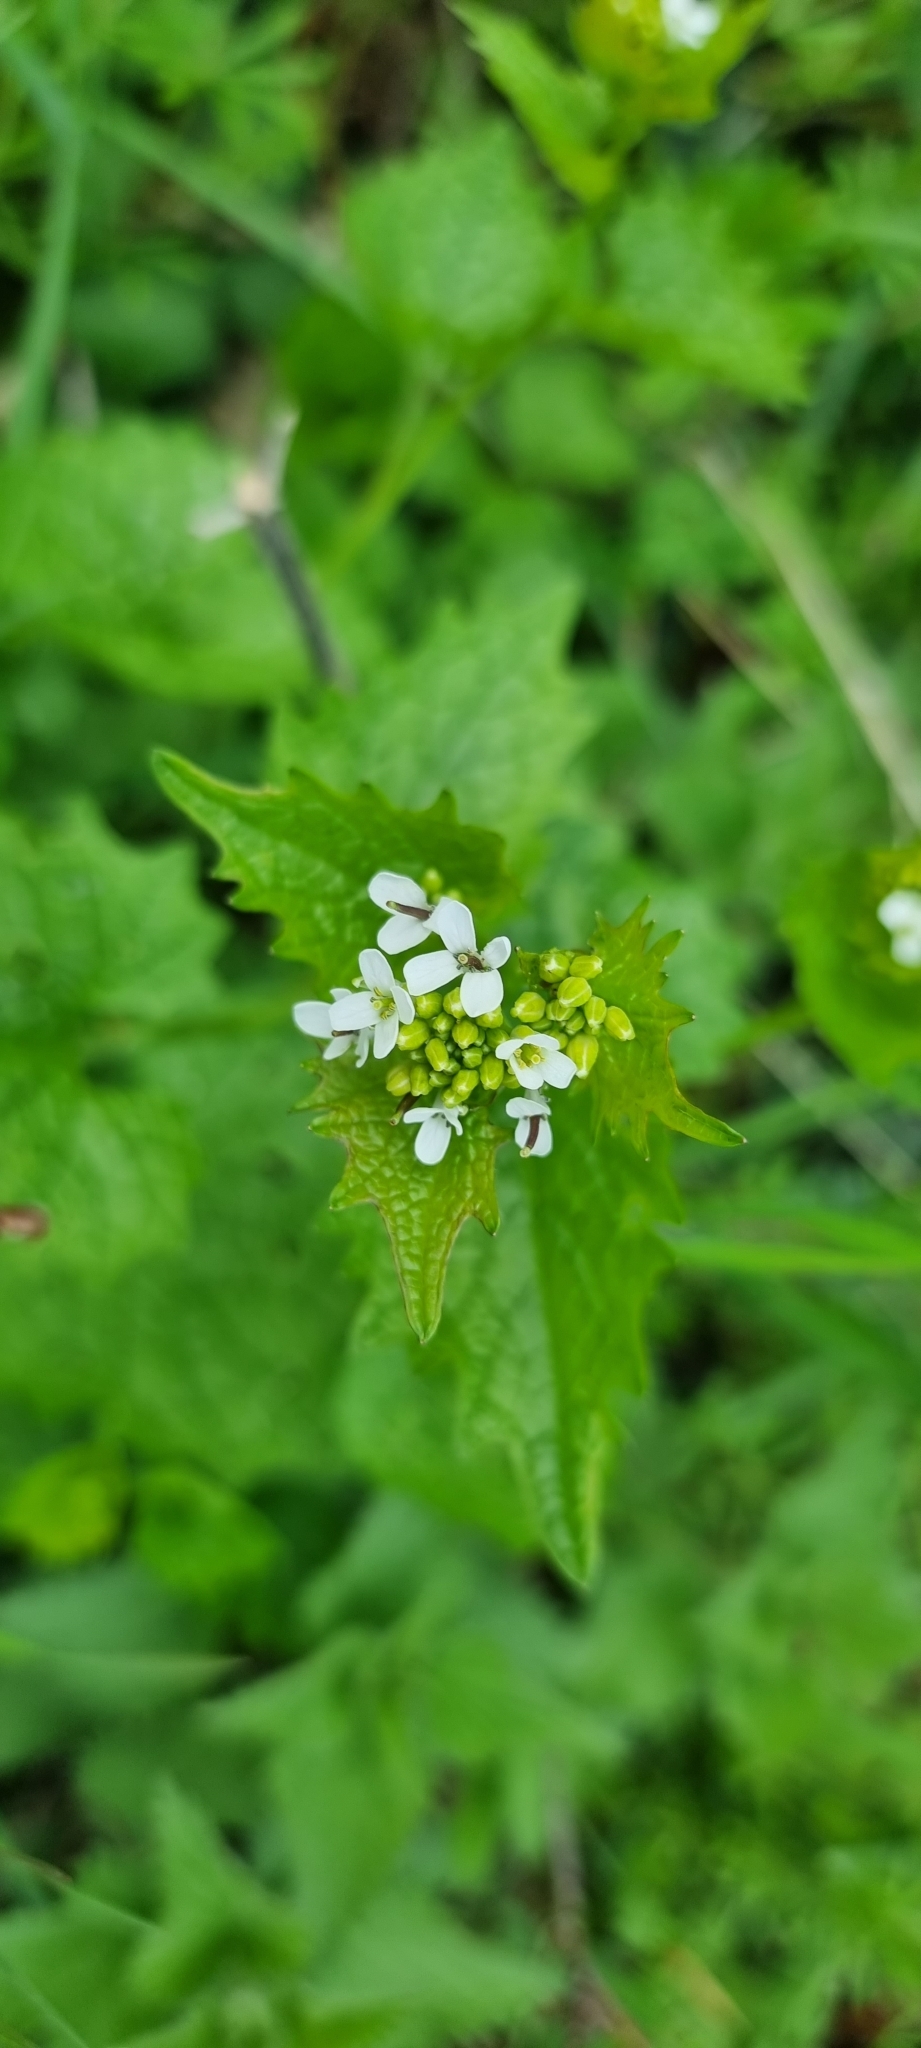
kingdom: Plantae
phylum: Tracheophyta
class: Magnoliopsida
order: Brassicales
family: Brassicaceae
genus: Alliaria
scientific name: Alliaria petiolata
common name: Garlic mustard
